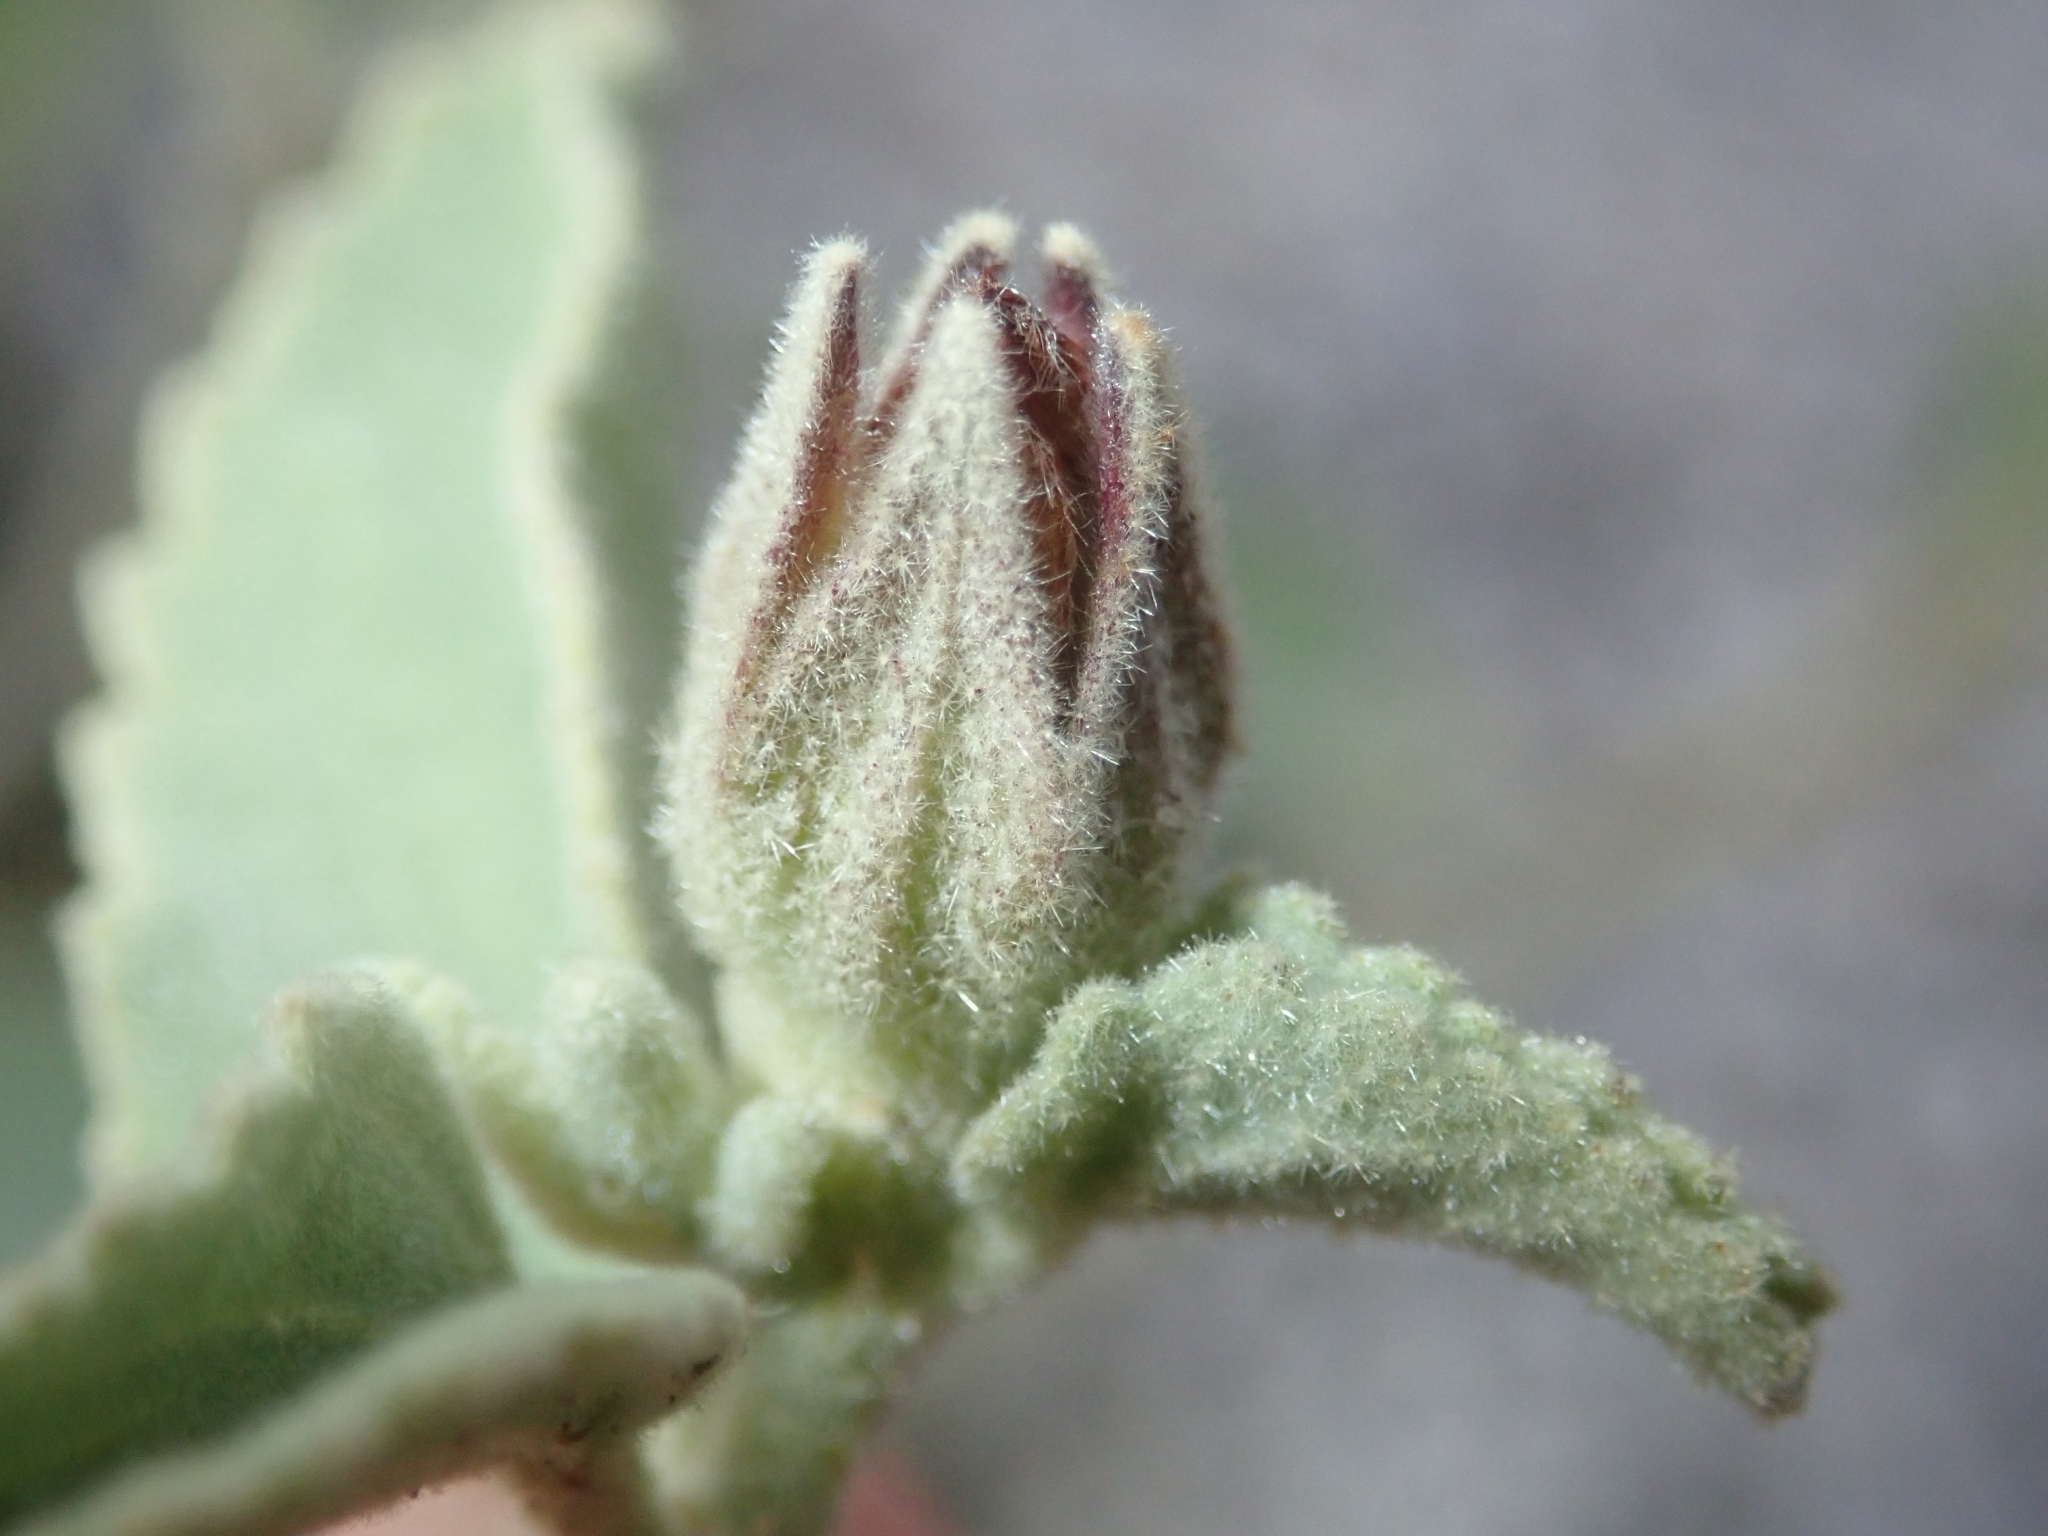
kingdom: Plantae
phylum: Tracheophyta
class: Magnoliopsida
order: Malvales
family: Malvaceae
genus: Hibiscus
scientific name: Hibiscus denudatus
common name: Paleface
